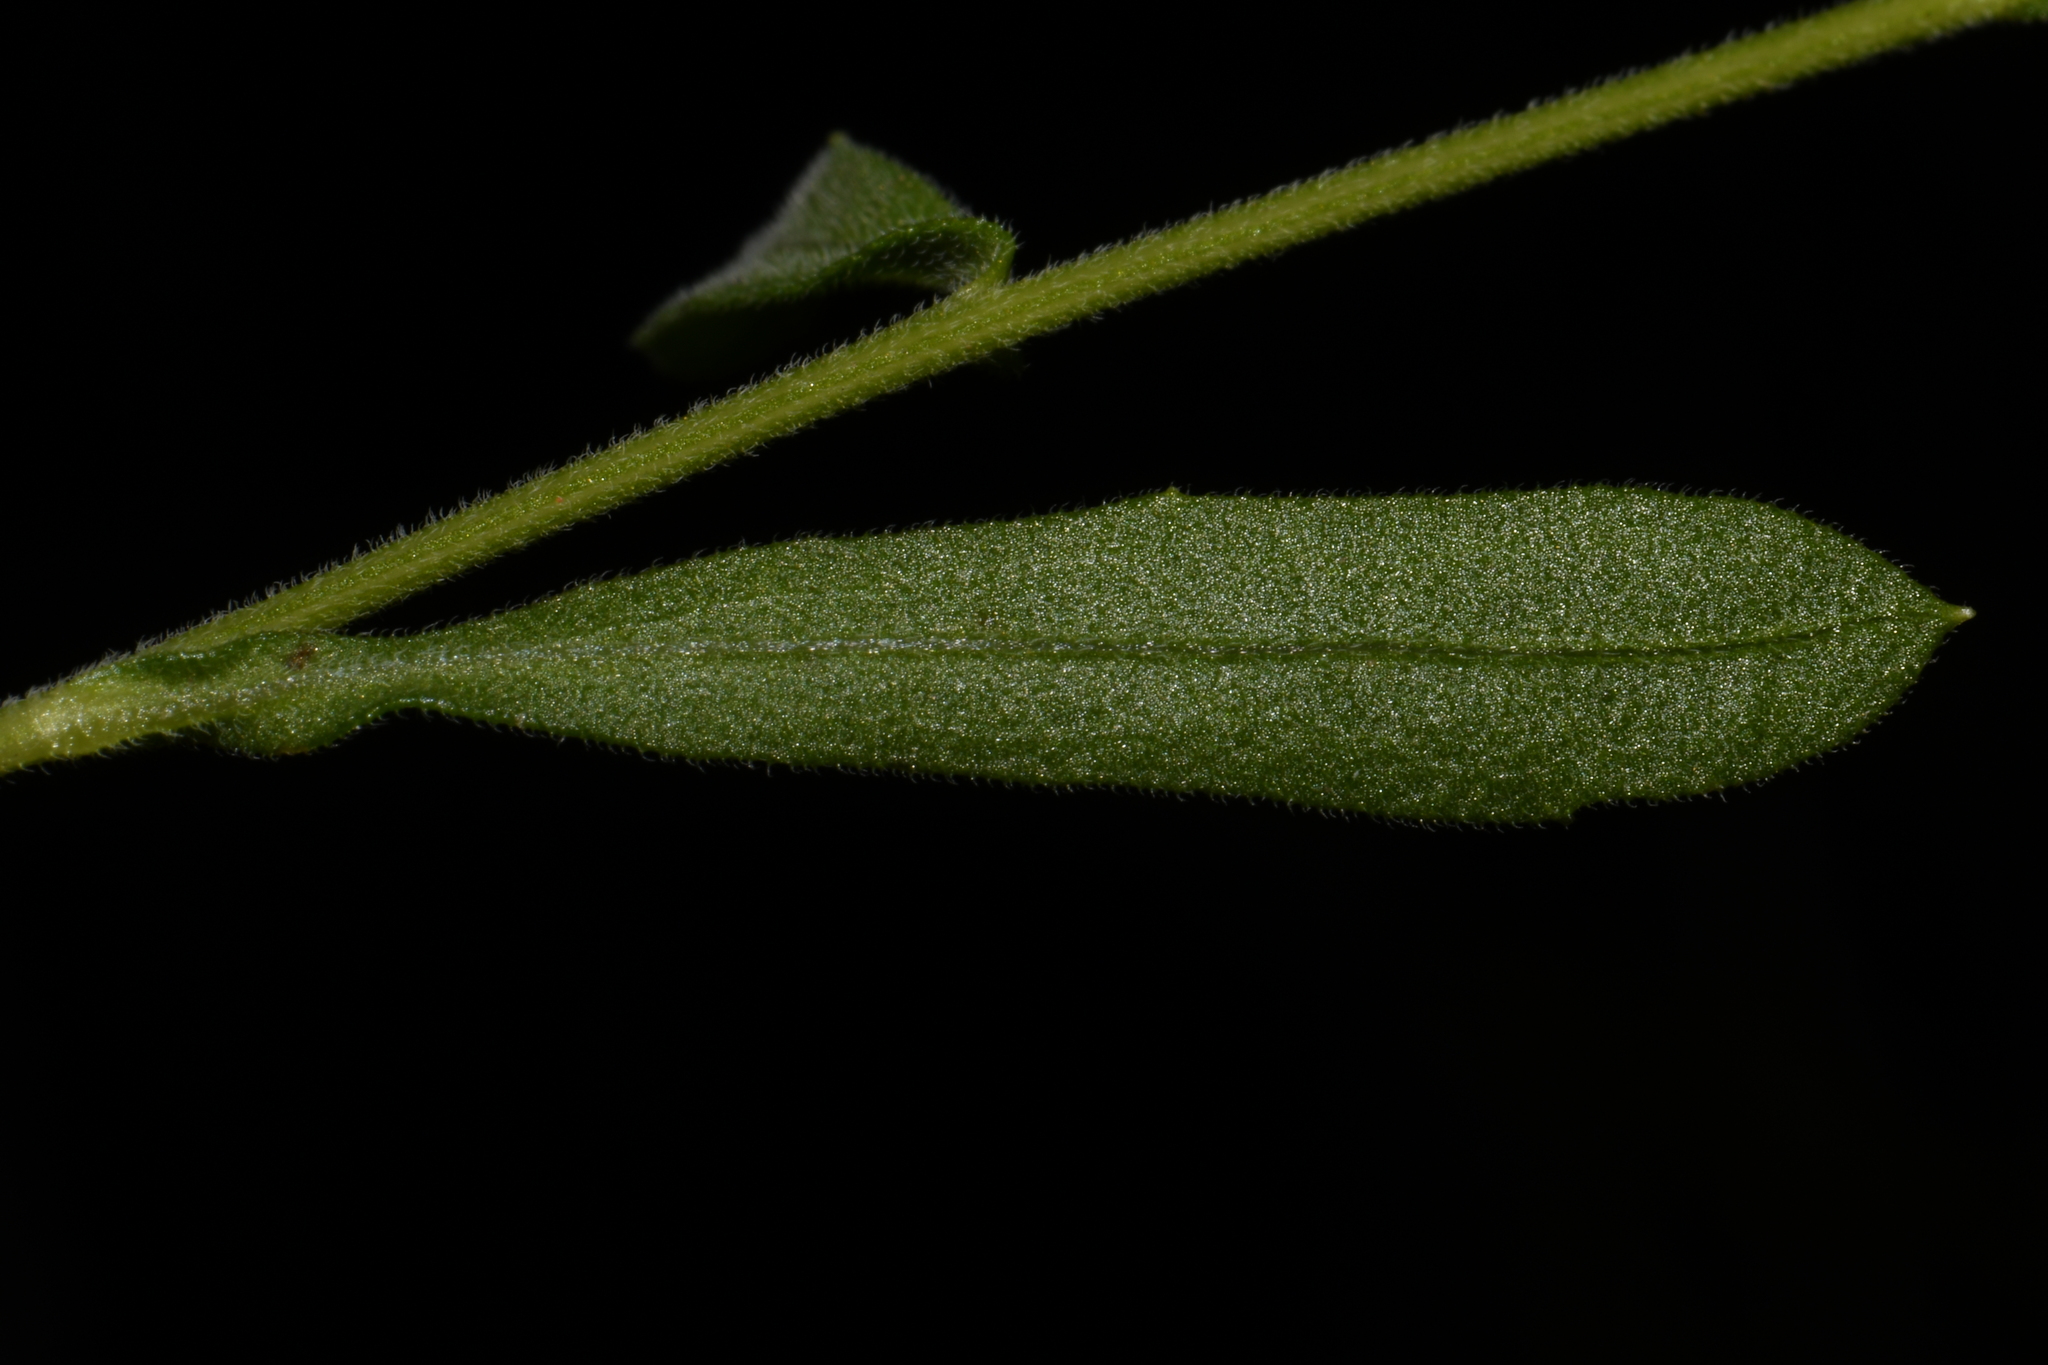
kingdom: Plantae
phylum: Tracheophyta
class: Magnoliopsida
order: Asterales
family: Asteraceae
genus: Gaillardia
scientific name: Gaillardia aestivalis
